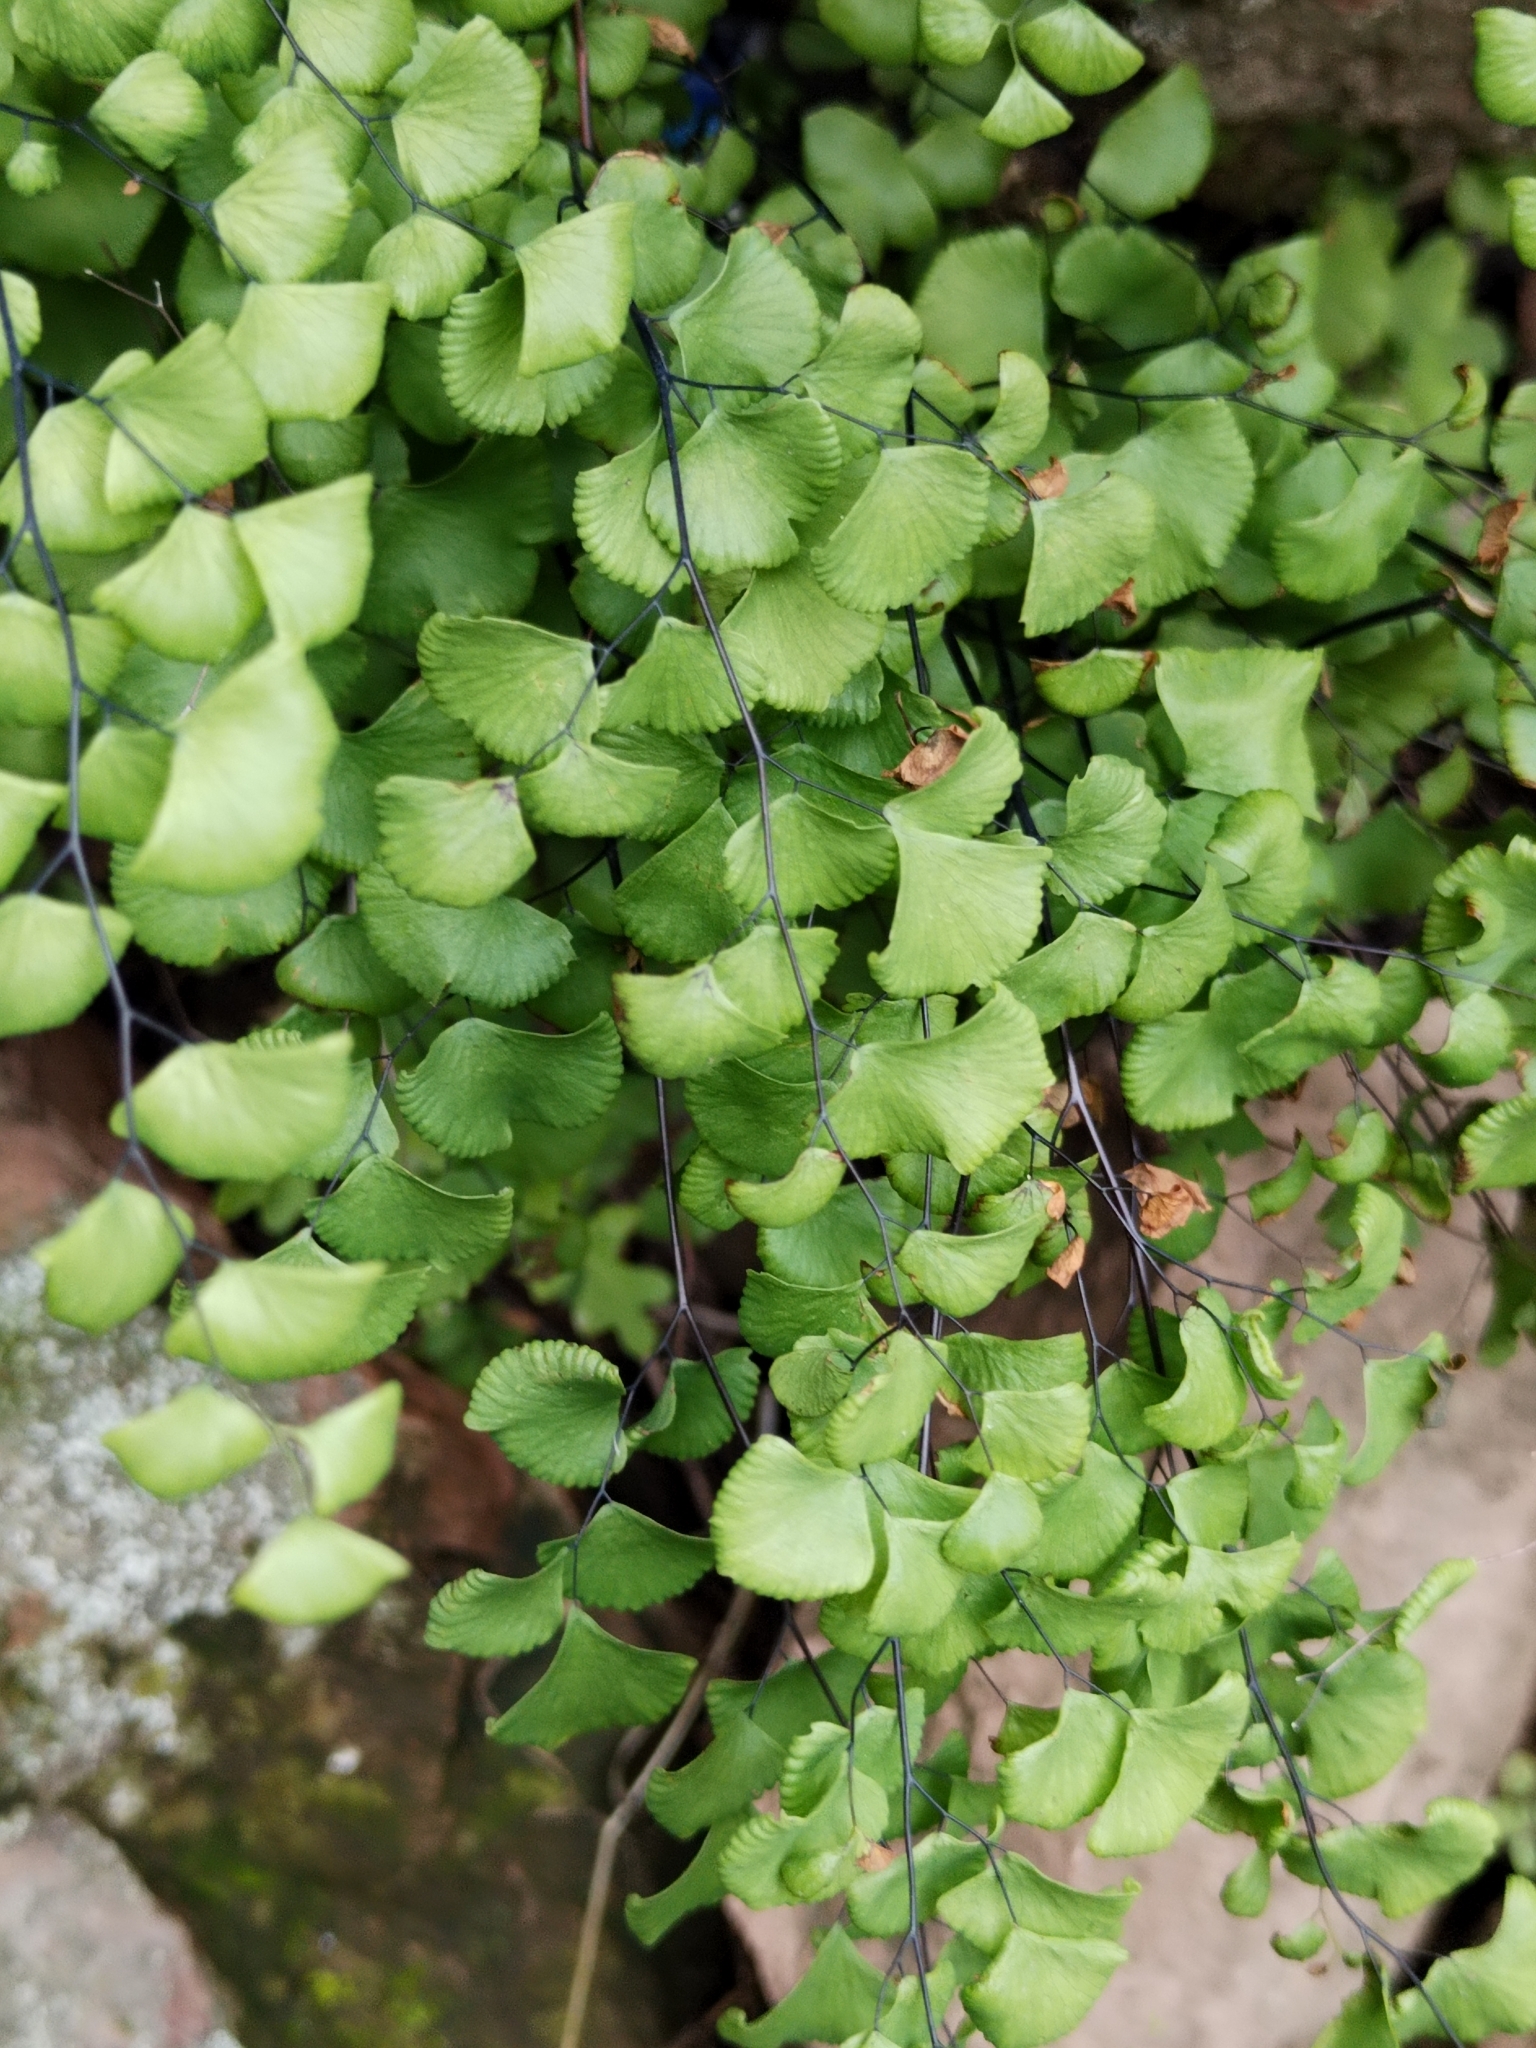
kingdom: Plantae
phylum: Tracheophyta
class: Polypodiopsida
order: Polypodiales
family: Pteridaceae
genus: Adiantum
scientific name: Adiantum jordanii
